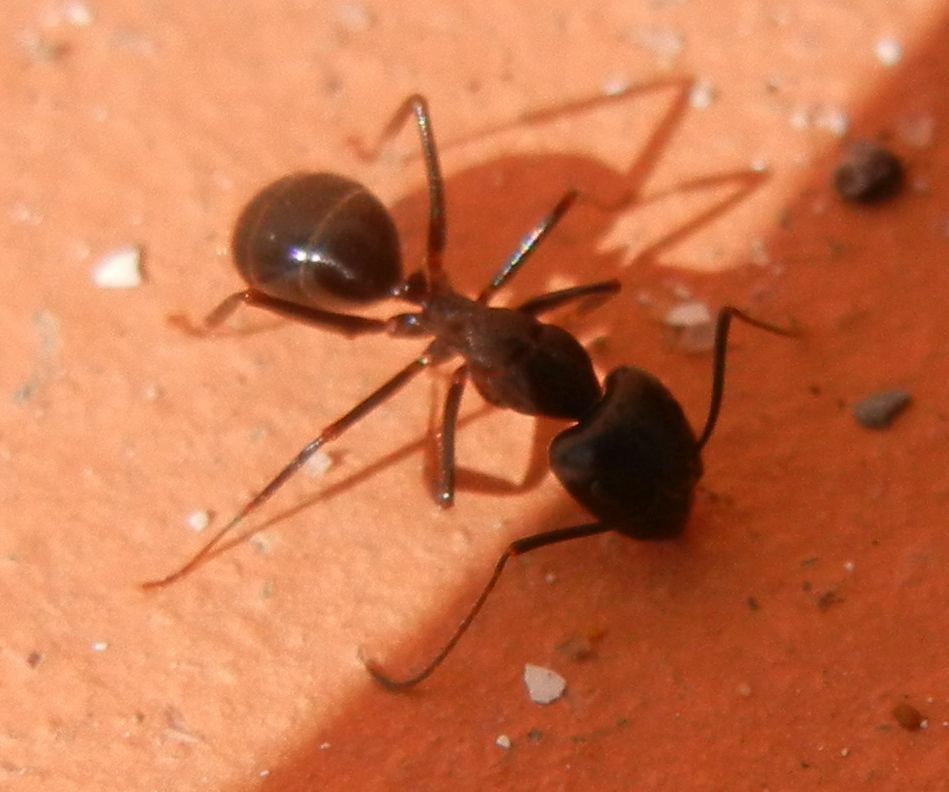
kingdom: Animalia
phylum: Arthropoda
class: Insecta
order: Hymenoptera
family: Formicidae
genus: Camponotus
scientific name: Camponotus barbaricus
